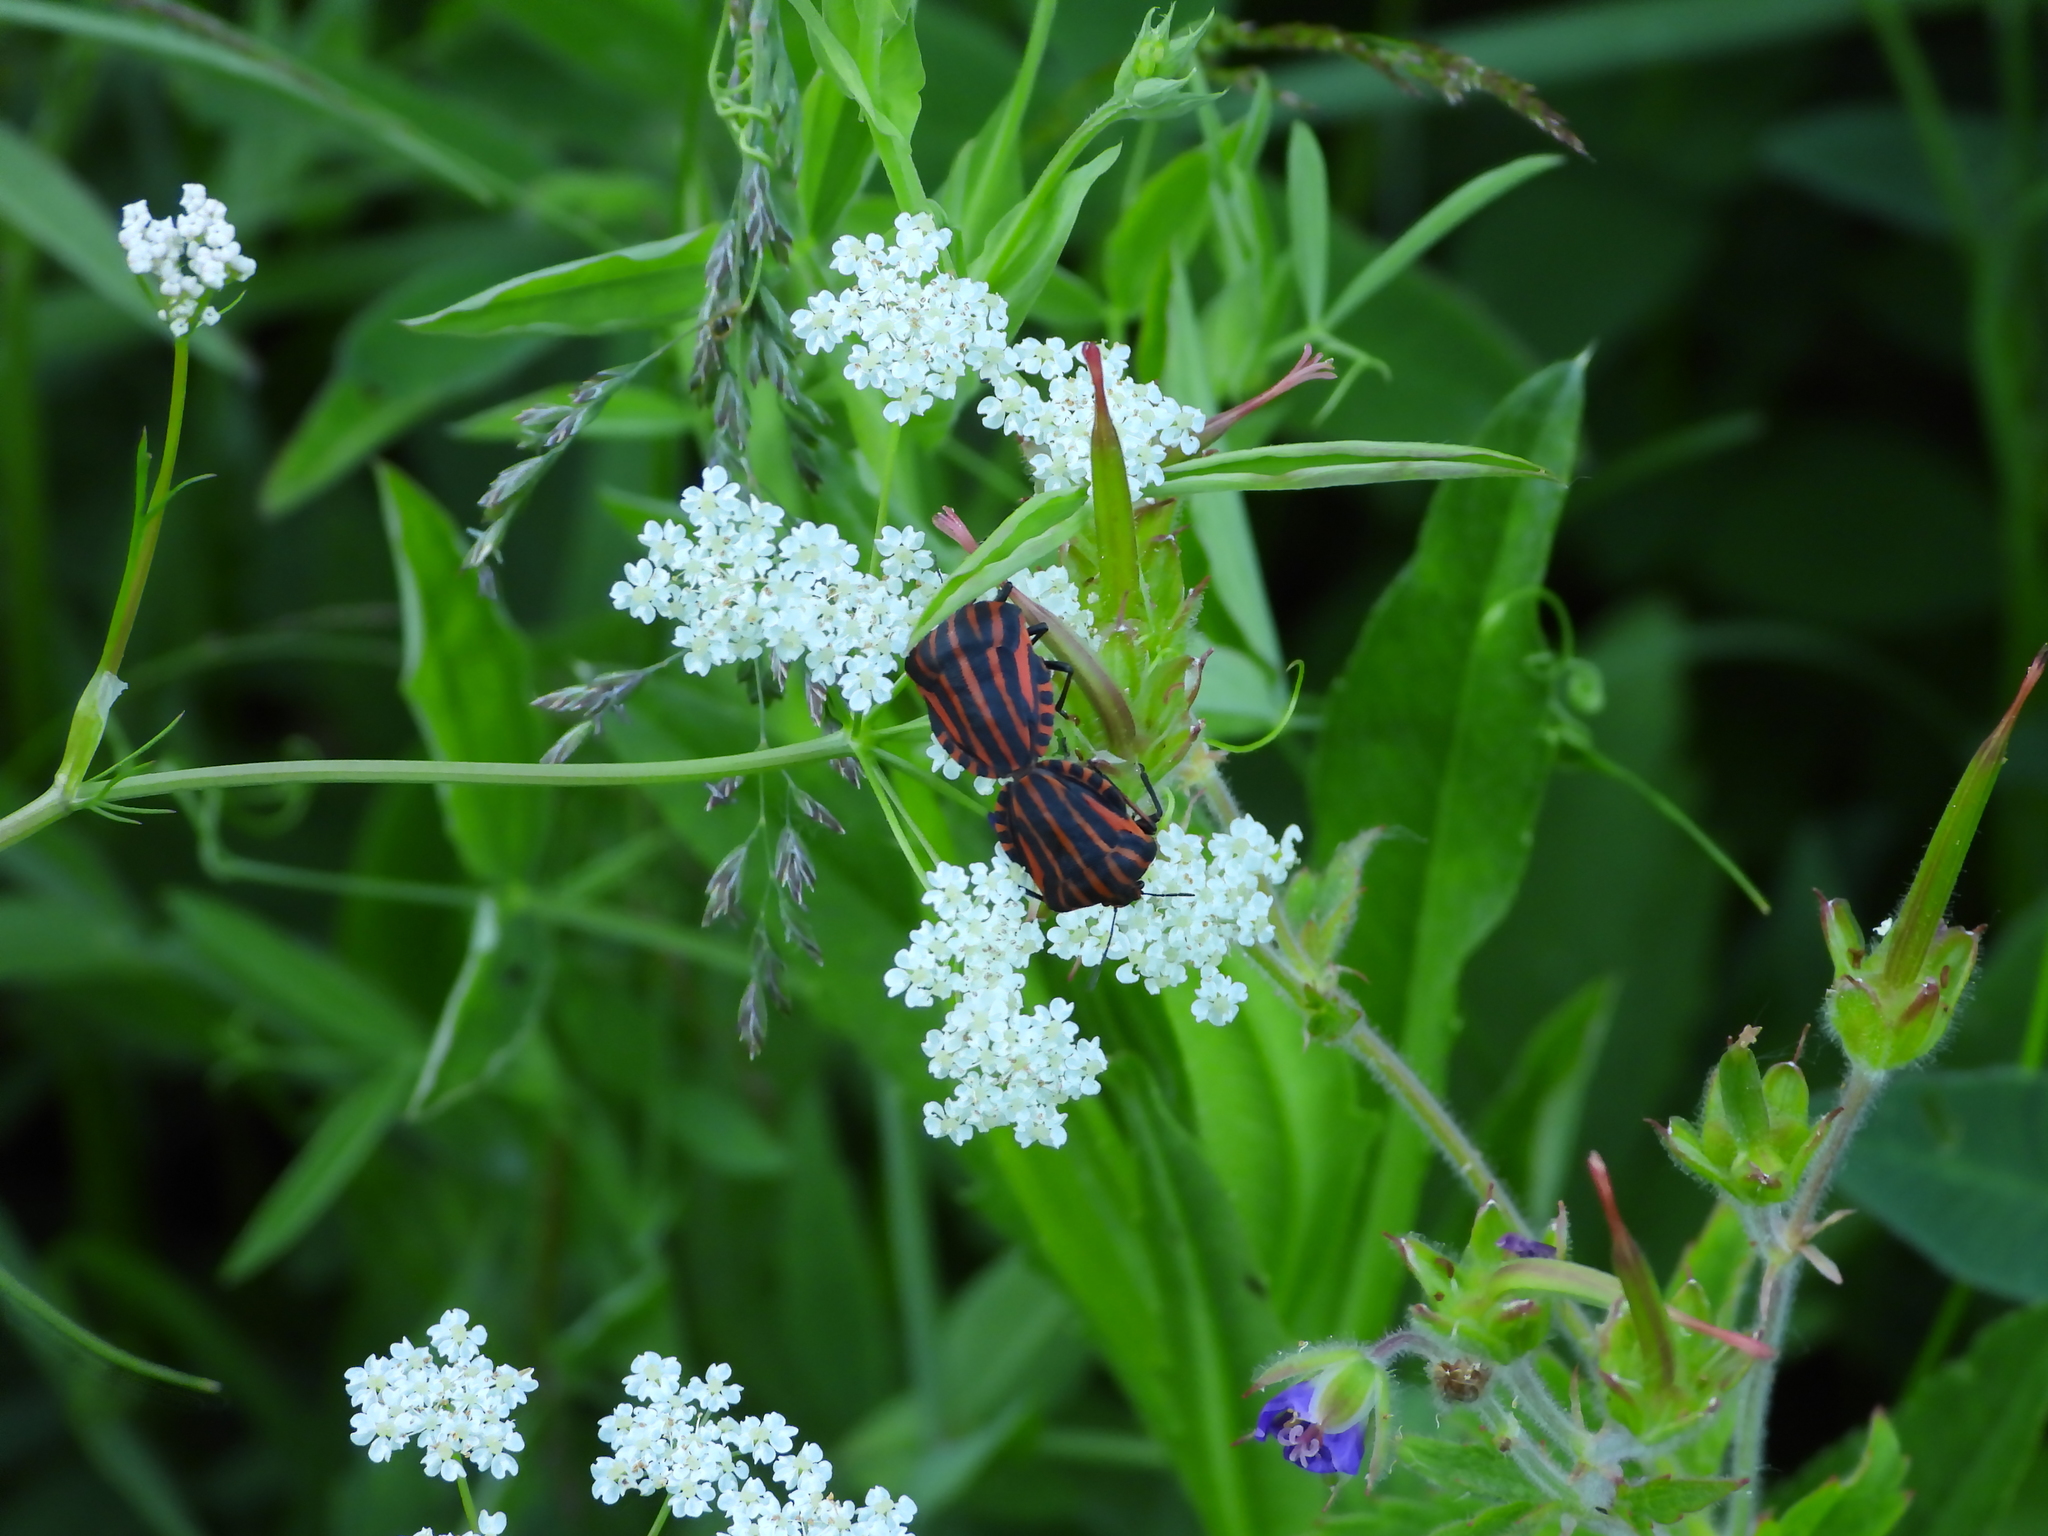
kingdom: Animalia
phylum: Arthropoda
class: Insecta
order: Hemiptera
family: Pentatomidae
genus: Graphosoma
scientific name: Graphosoma italicum
